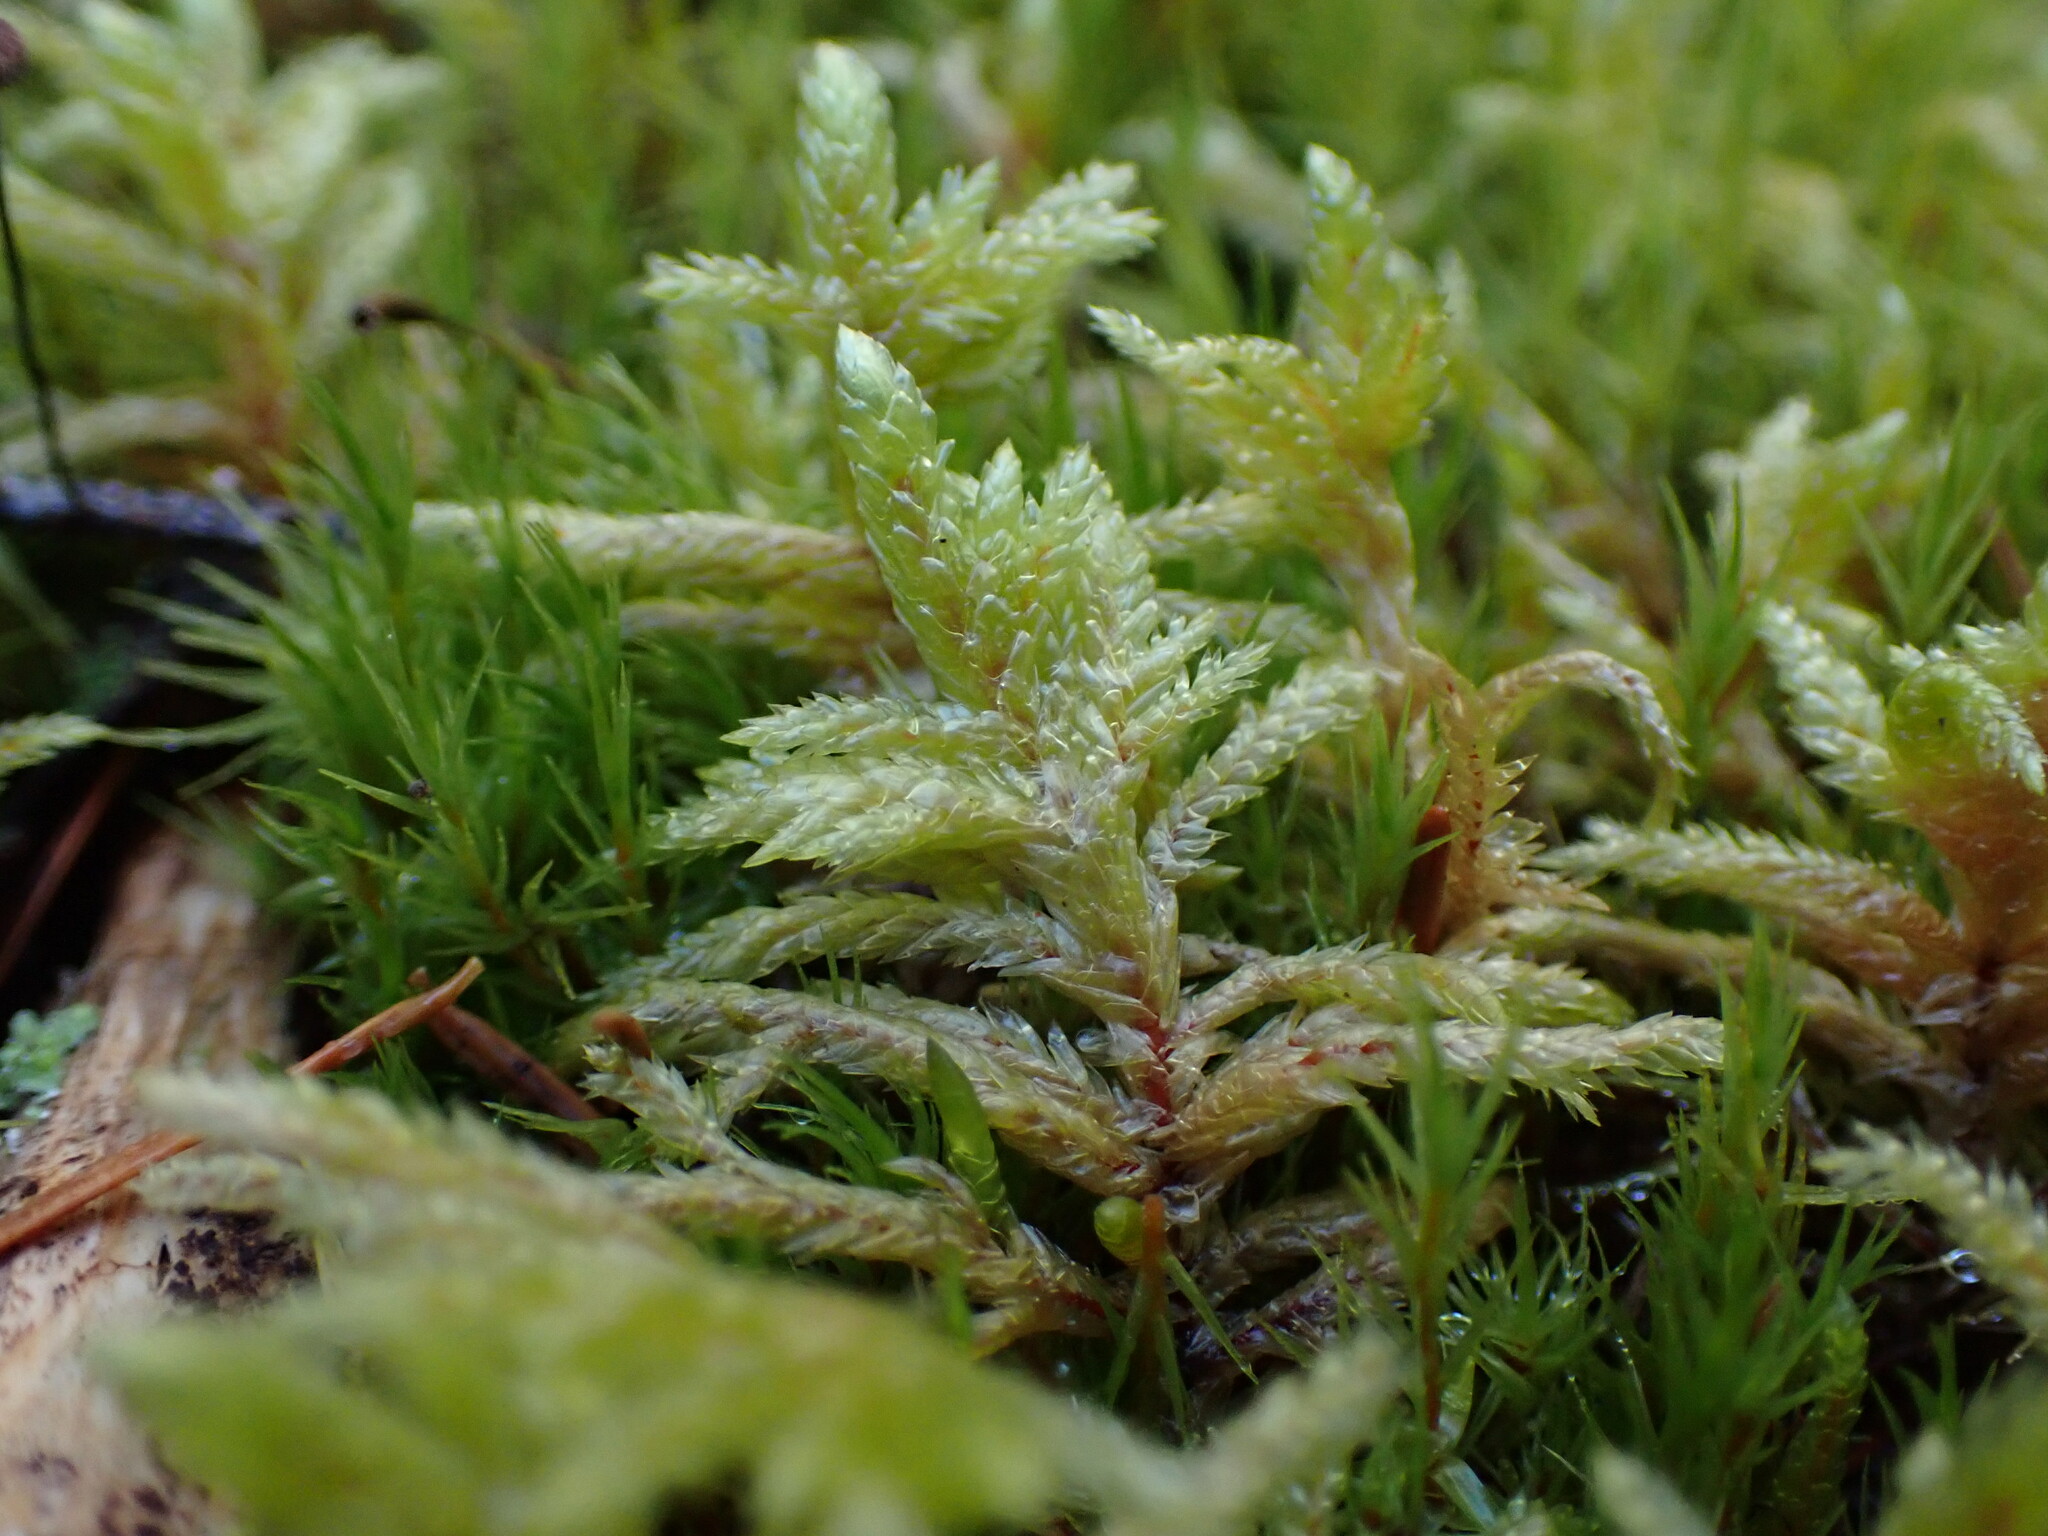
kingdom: Plantae
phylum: Bryophyta
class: Bryopsida
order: Hypnales
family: Hylocomiaceae
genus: Pleurozium
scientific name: Pleurozium schreberi
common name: Red-stemmed feather moss
